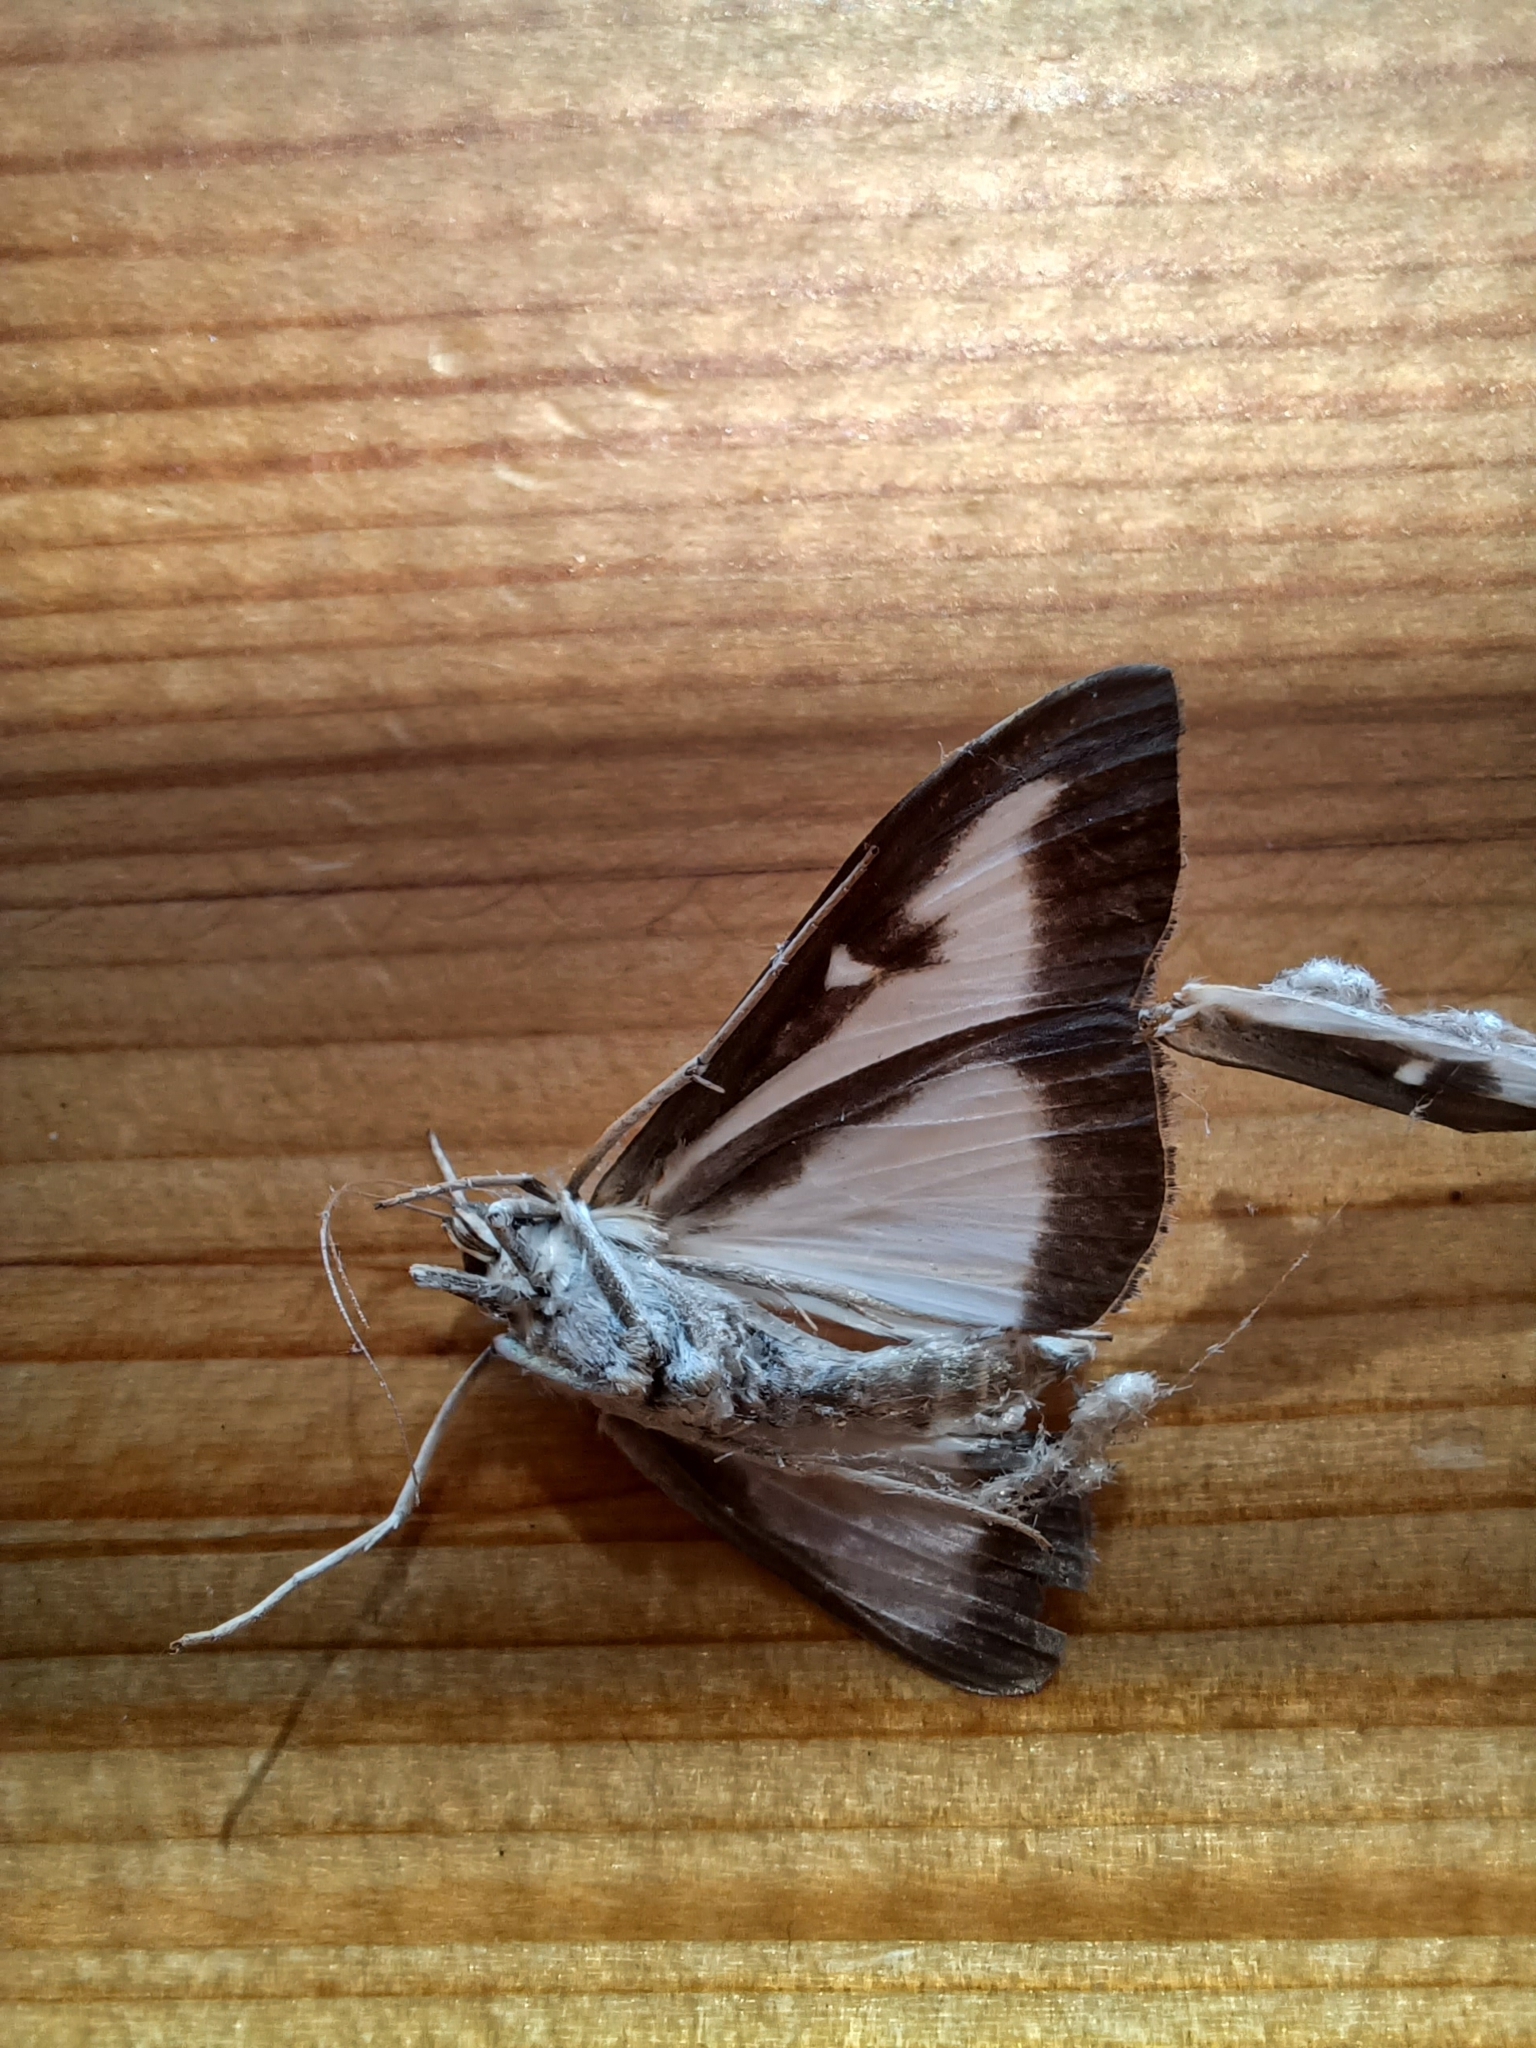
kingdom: Animalia
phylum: Arthropoda
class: Insecta
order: Lepidoptera
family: Crambidae
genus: Cydalima
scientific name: Cydalima perspectalis
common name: Box tree moth
